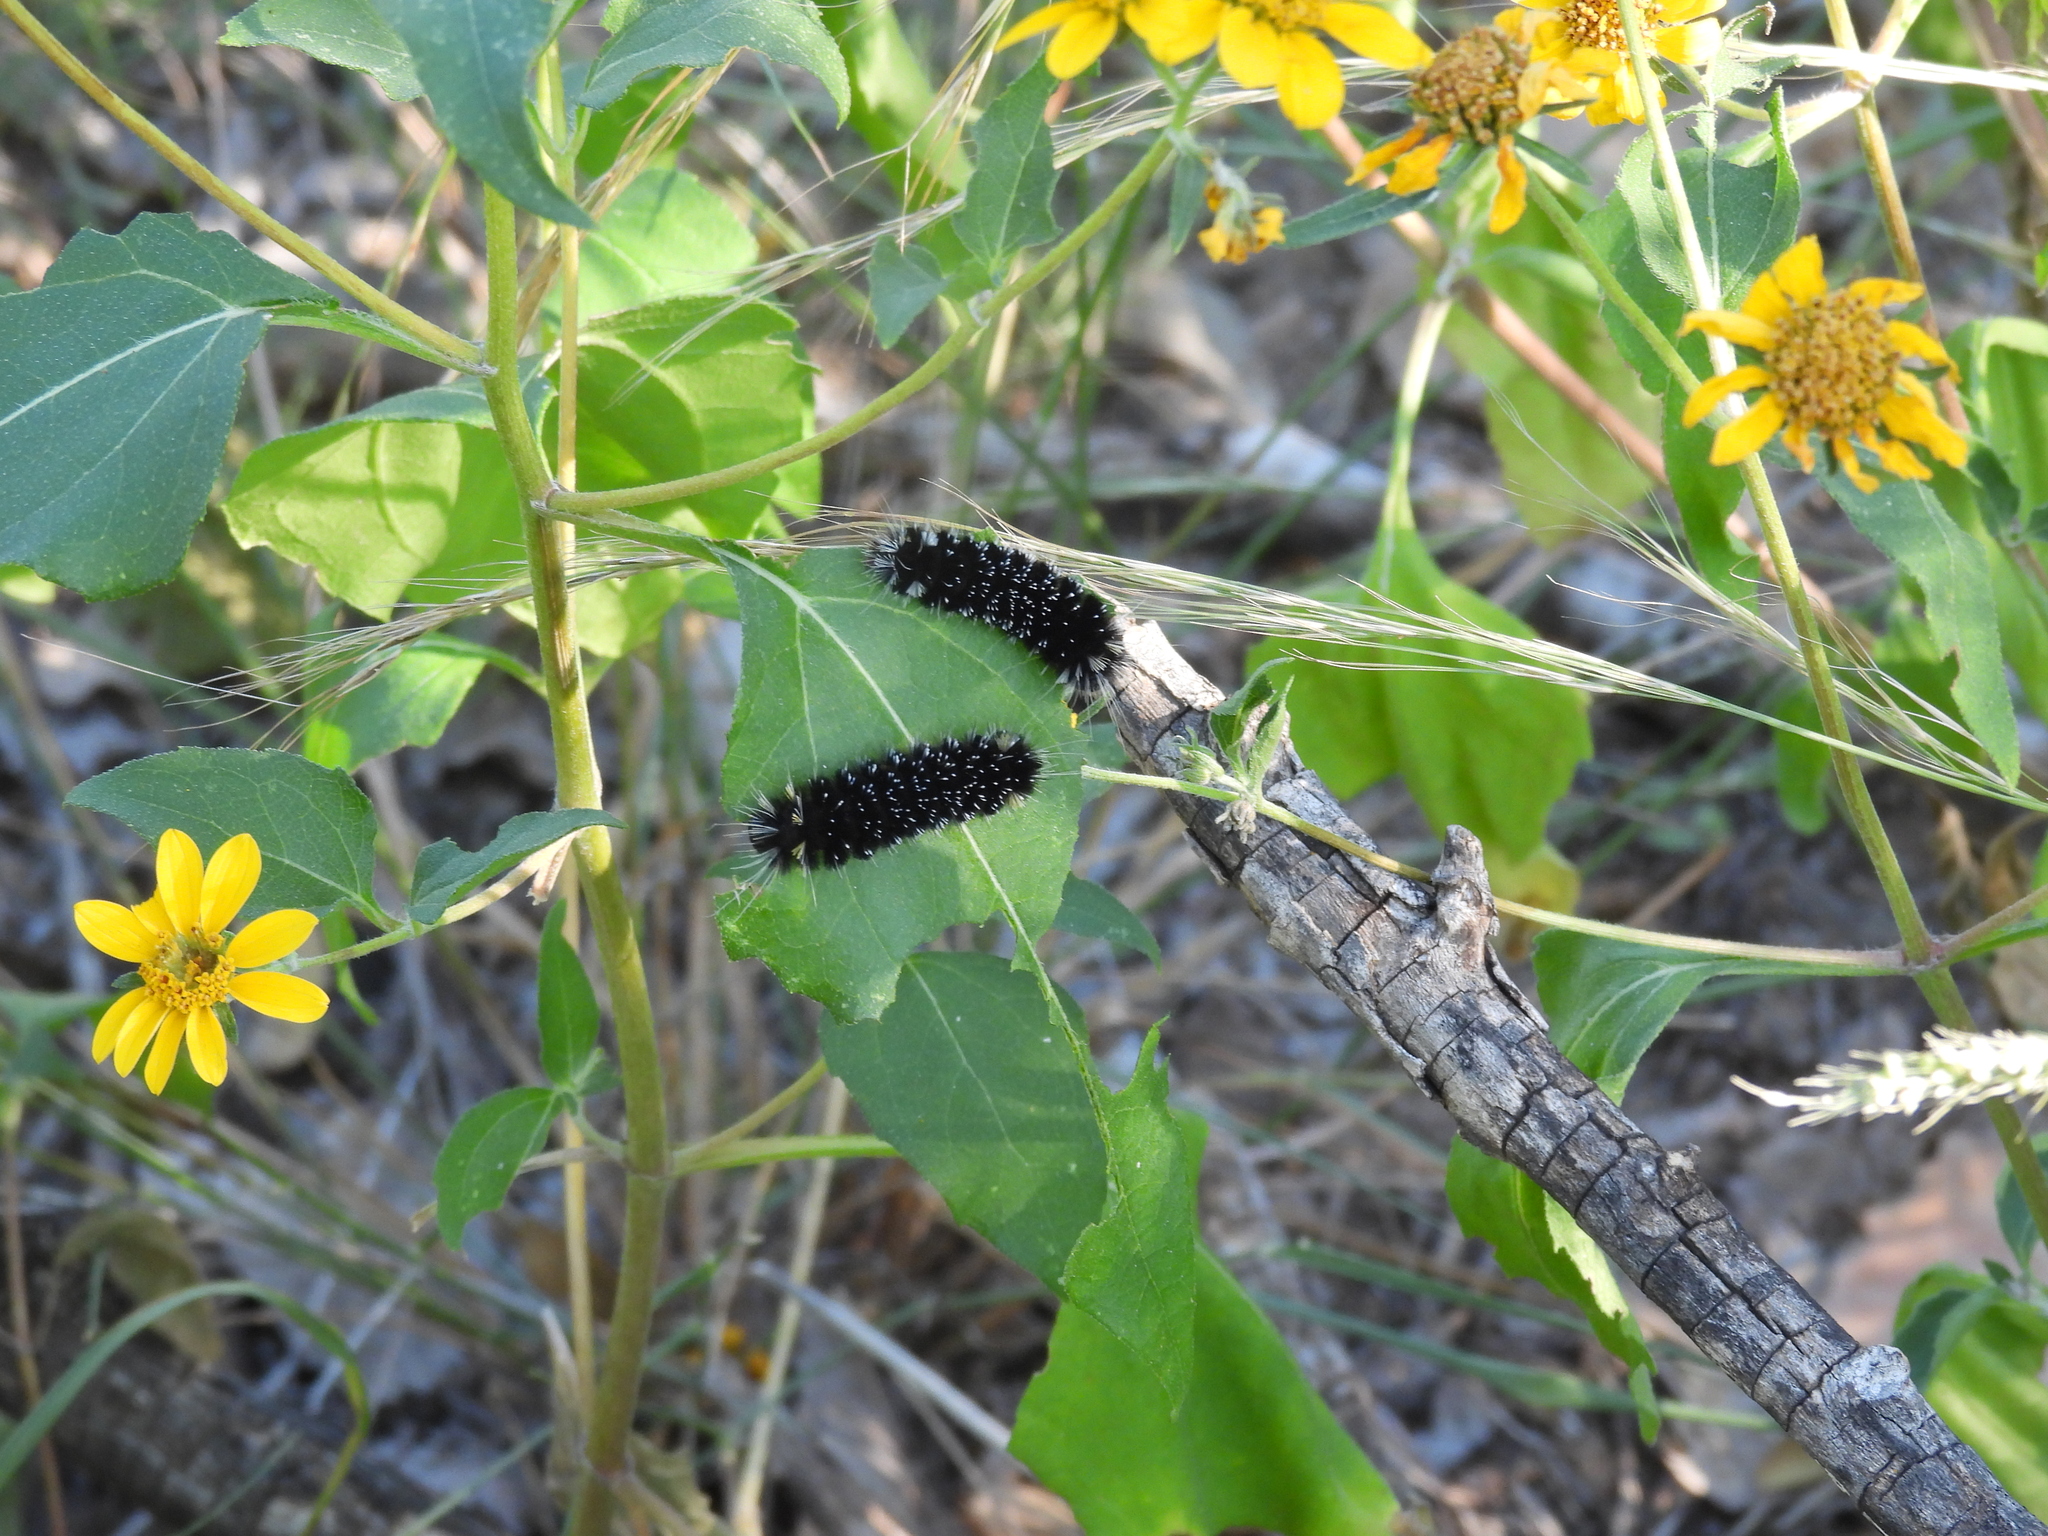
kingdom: Animalia
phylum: Arthropoda
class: Insecta
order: Lepidoptera
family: Erebidae
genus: Hypocrisias
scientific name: Hypocrisias minima
